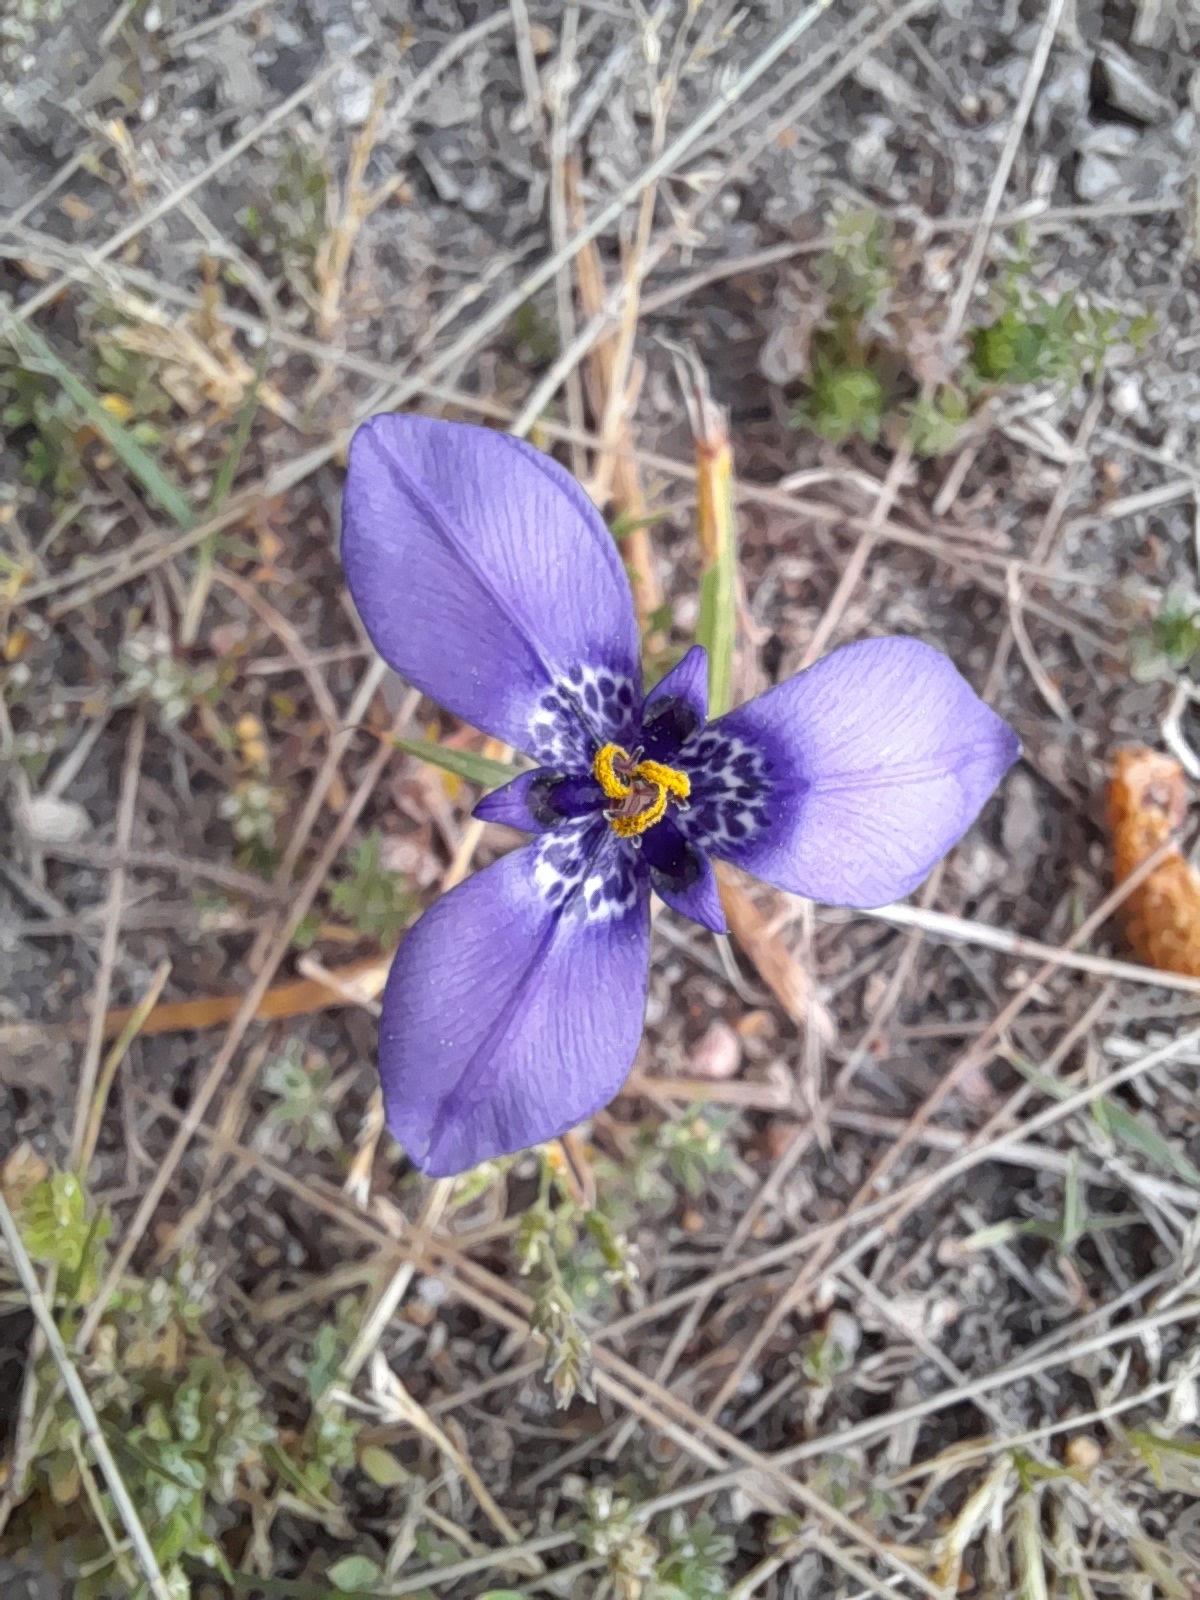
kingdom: Plantae
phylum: Tracheophyta
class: Liliopsida
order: Asparagales
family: Iridaceae
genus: Herbertia
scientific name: Herbertia lahue
